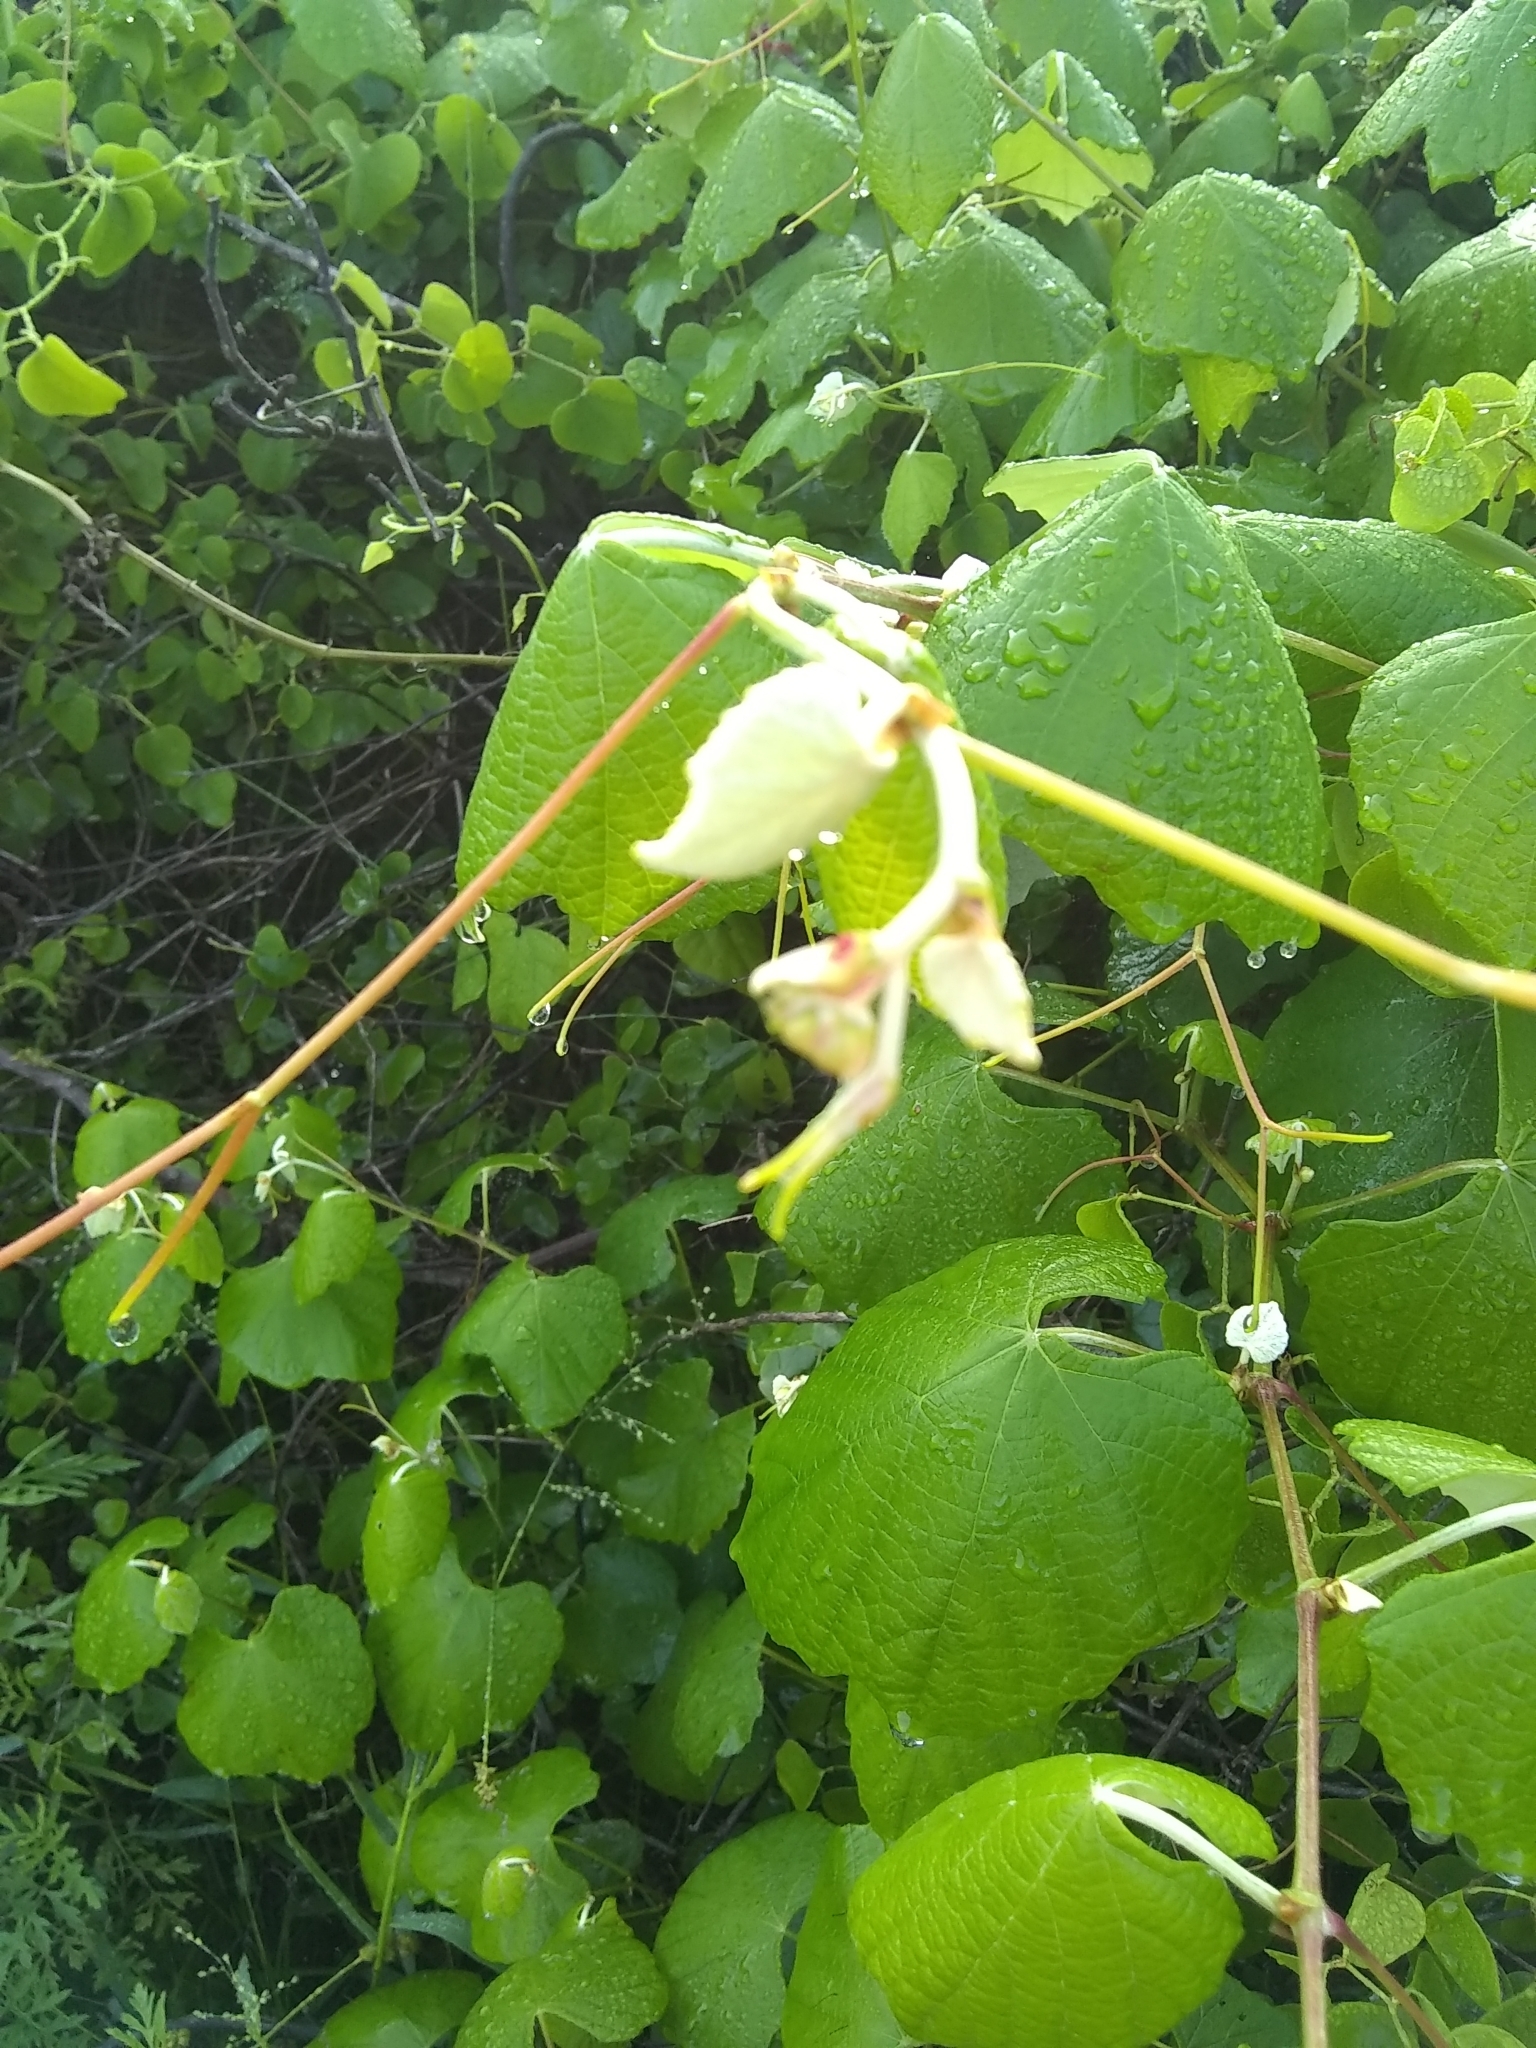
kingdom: Plantae
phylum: Tracheophyta
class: Magnoliopsida
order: Vitales
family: Vitaceae
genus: Vitis
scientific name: Vitis mustangensis
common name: Mustang grape
